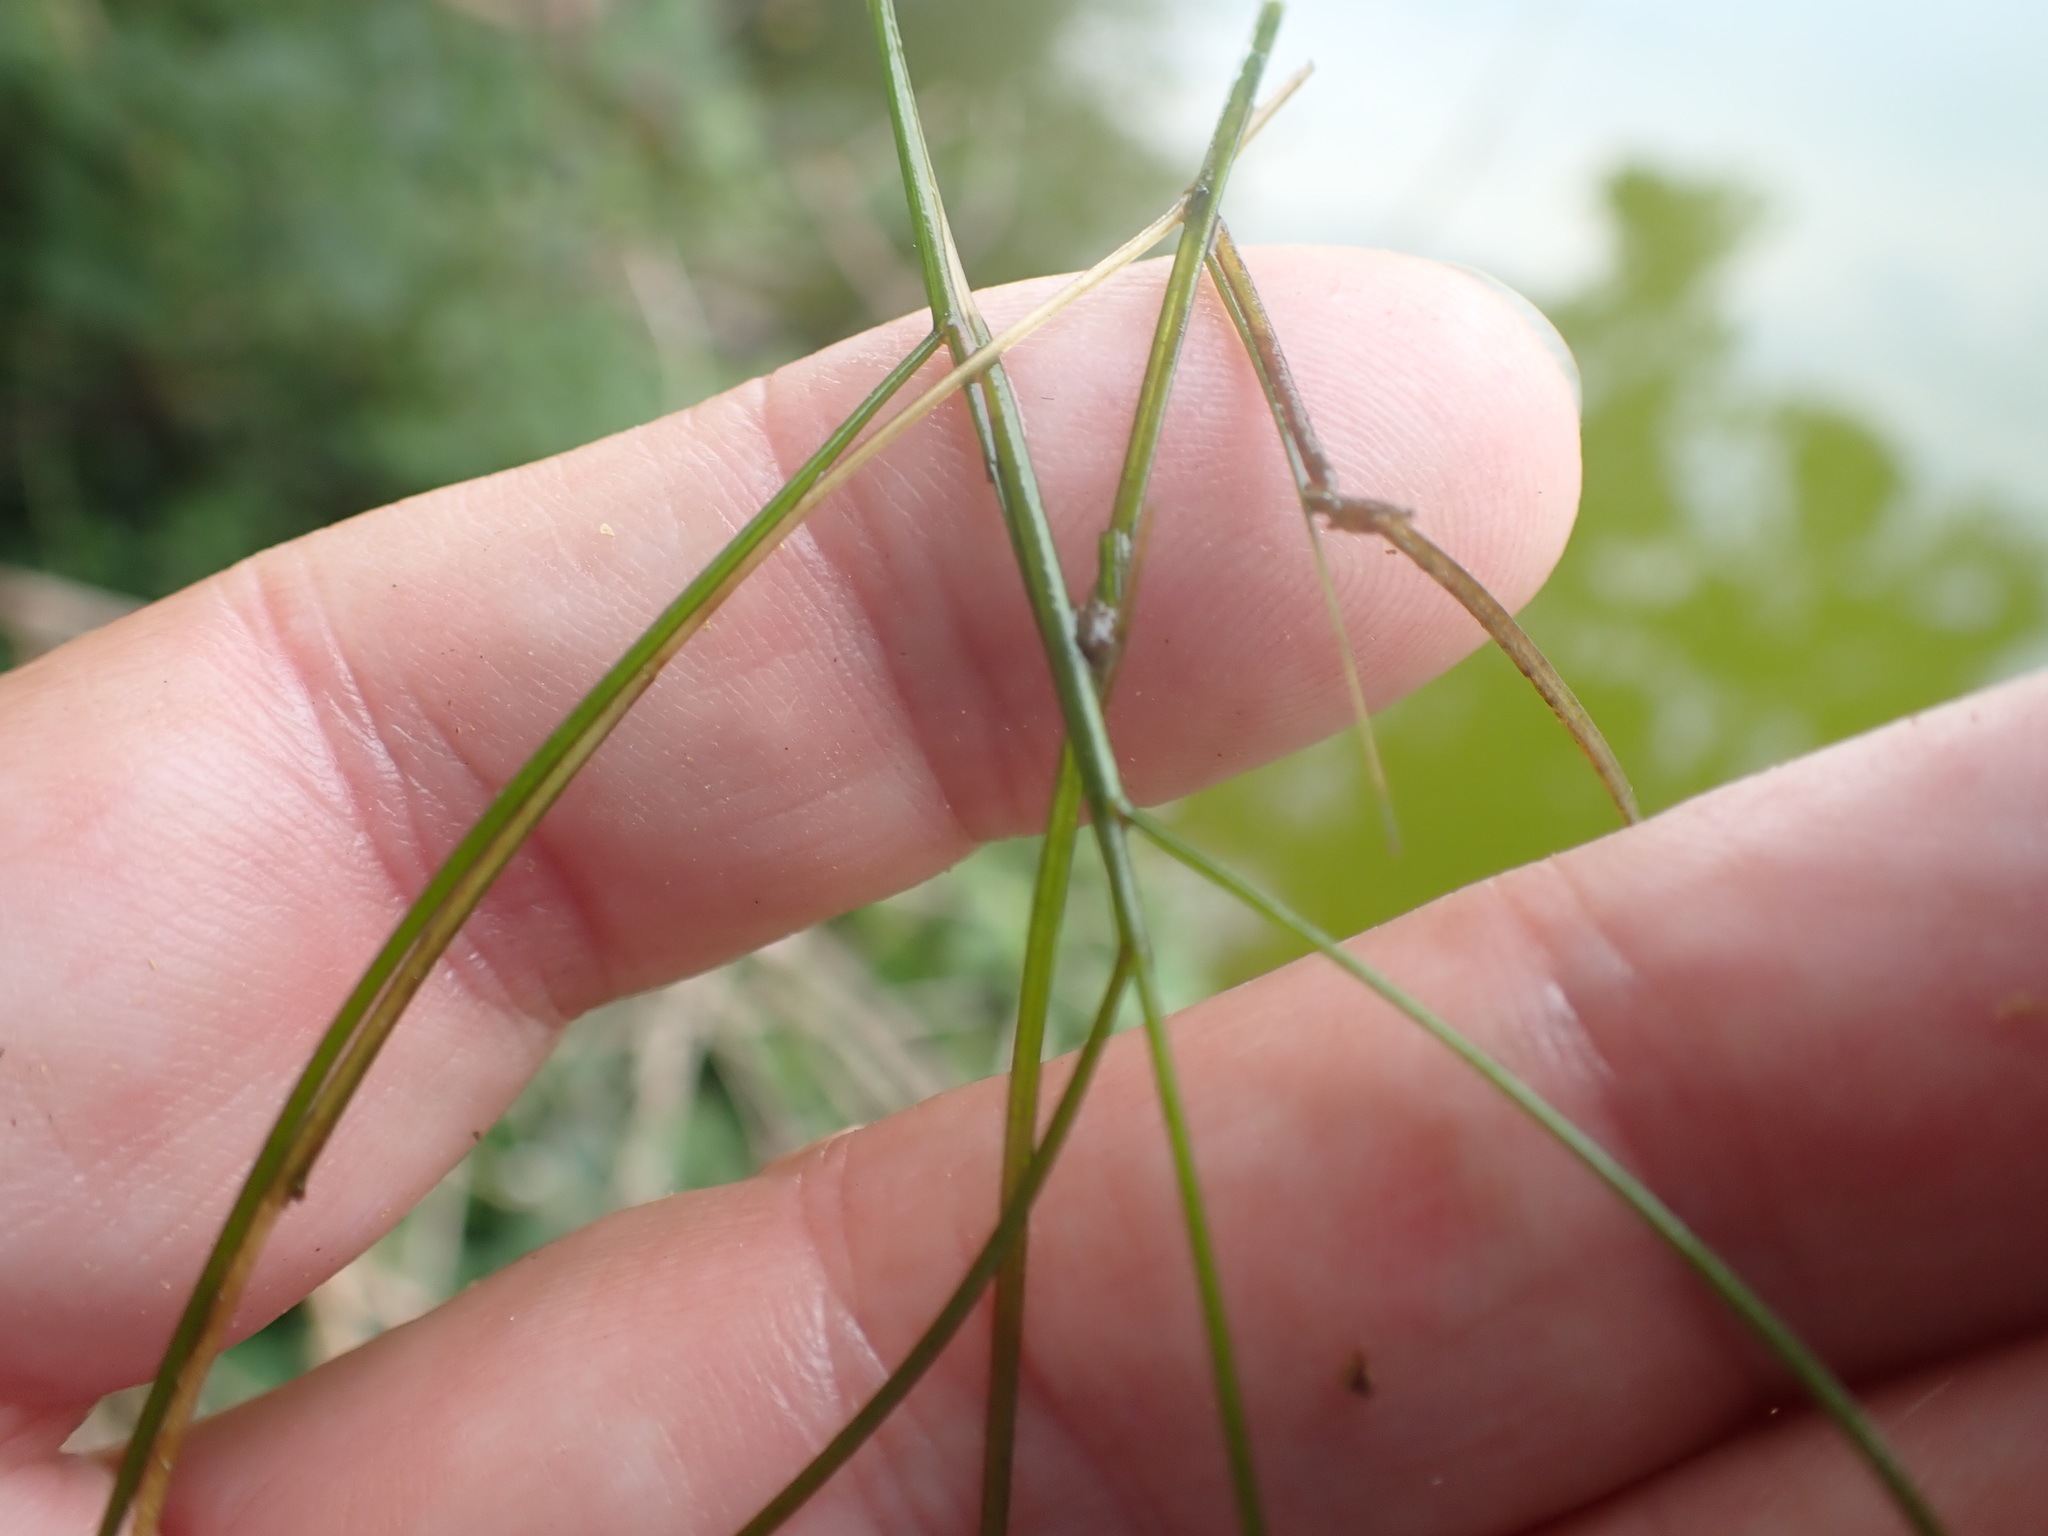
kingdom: Plantae
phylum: Tracheophyta
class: Liliopsida
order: Alismatales
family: Potamogetonaceae
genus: Stuckenia
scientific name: Stuckenia pectinata
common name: Sago pondweed
